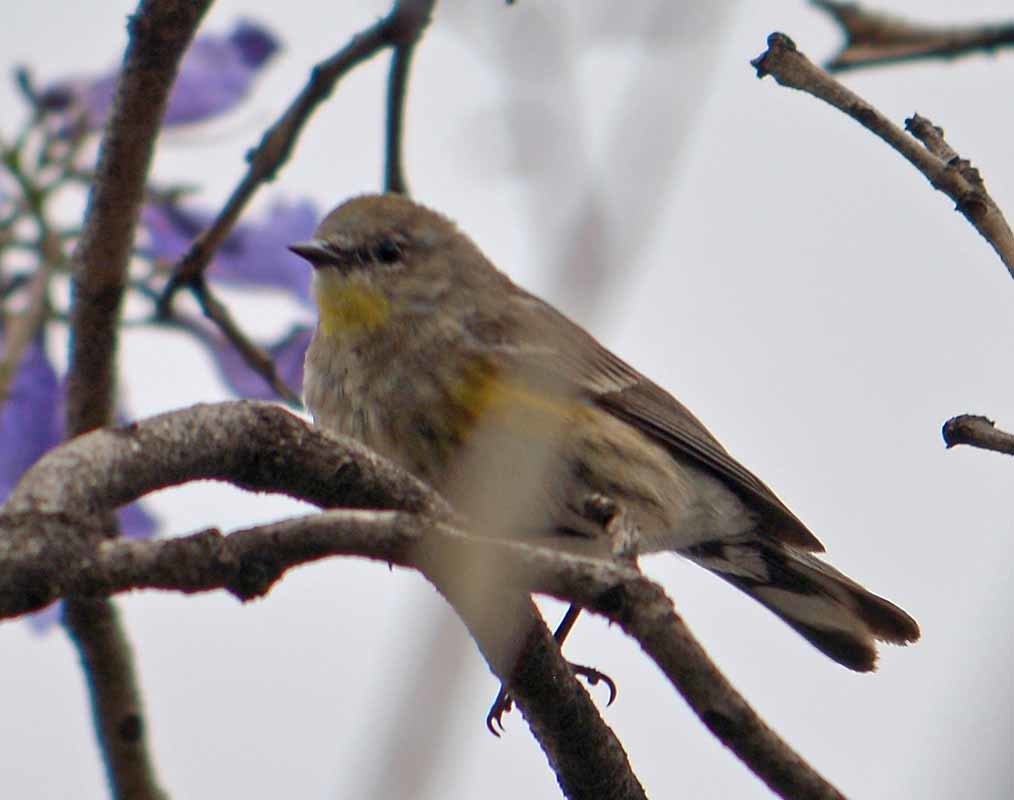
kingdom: Animalia
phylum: Chordata
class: Aves
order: Passeriformes
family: Parulidae
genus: Setophaga
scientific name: Setophaga coronata
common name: Myrtle warbler
